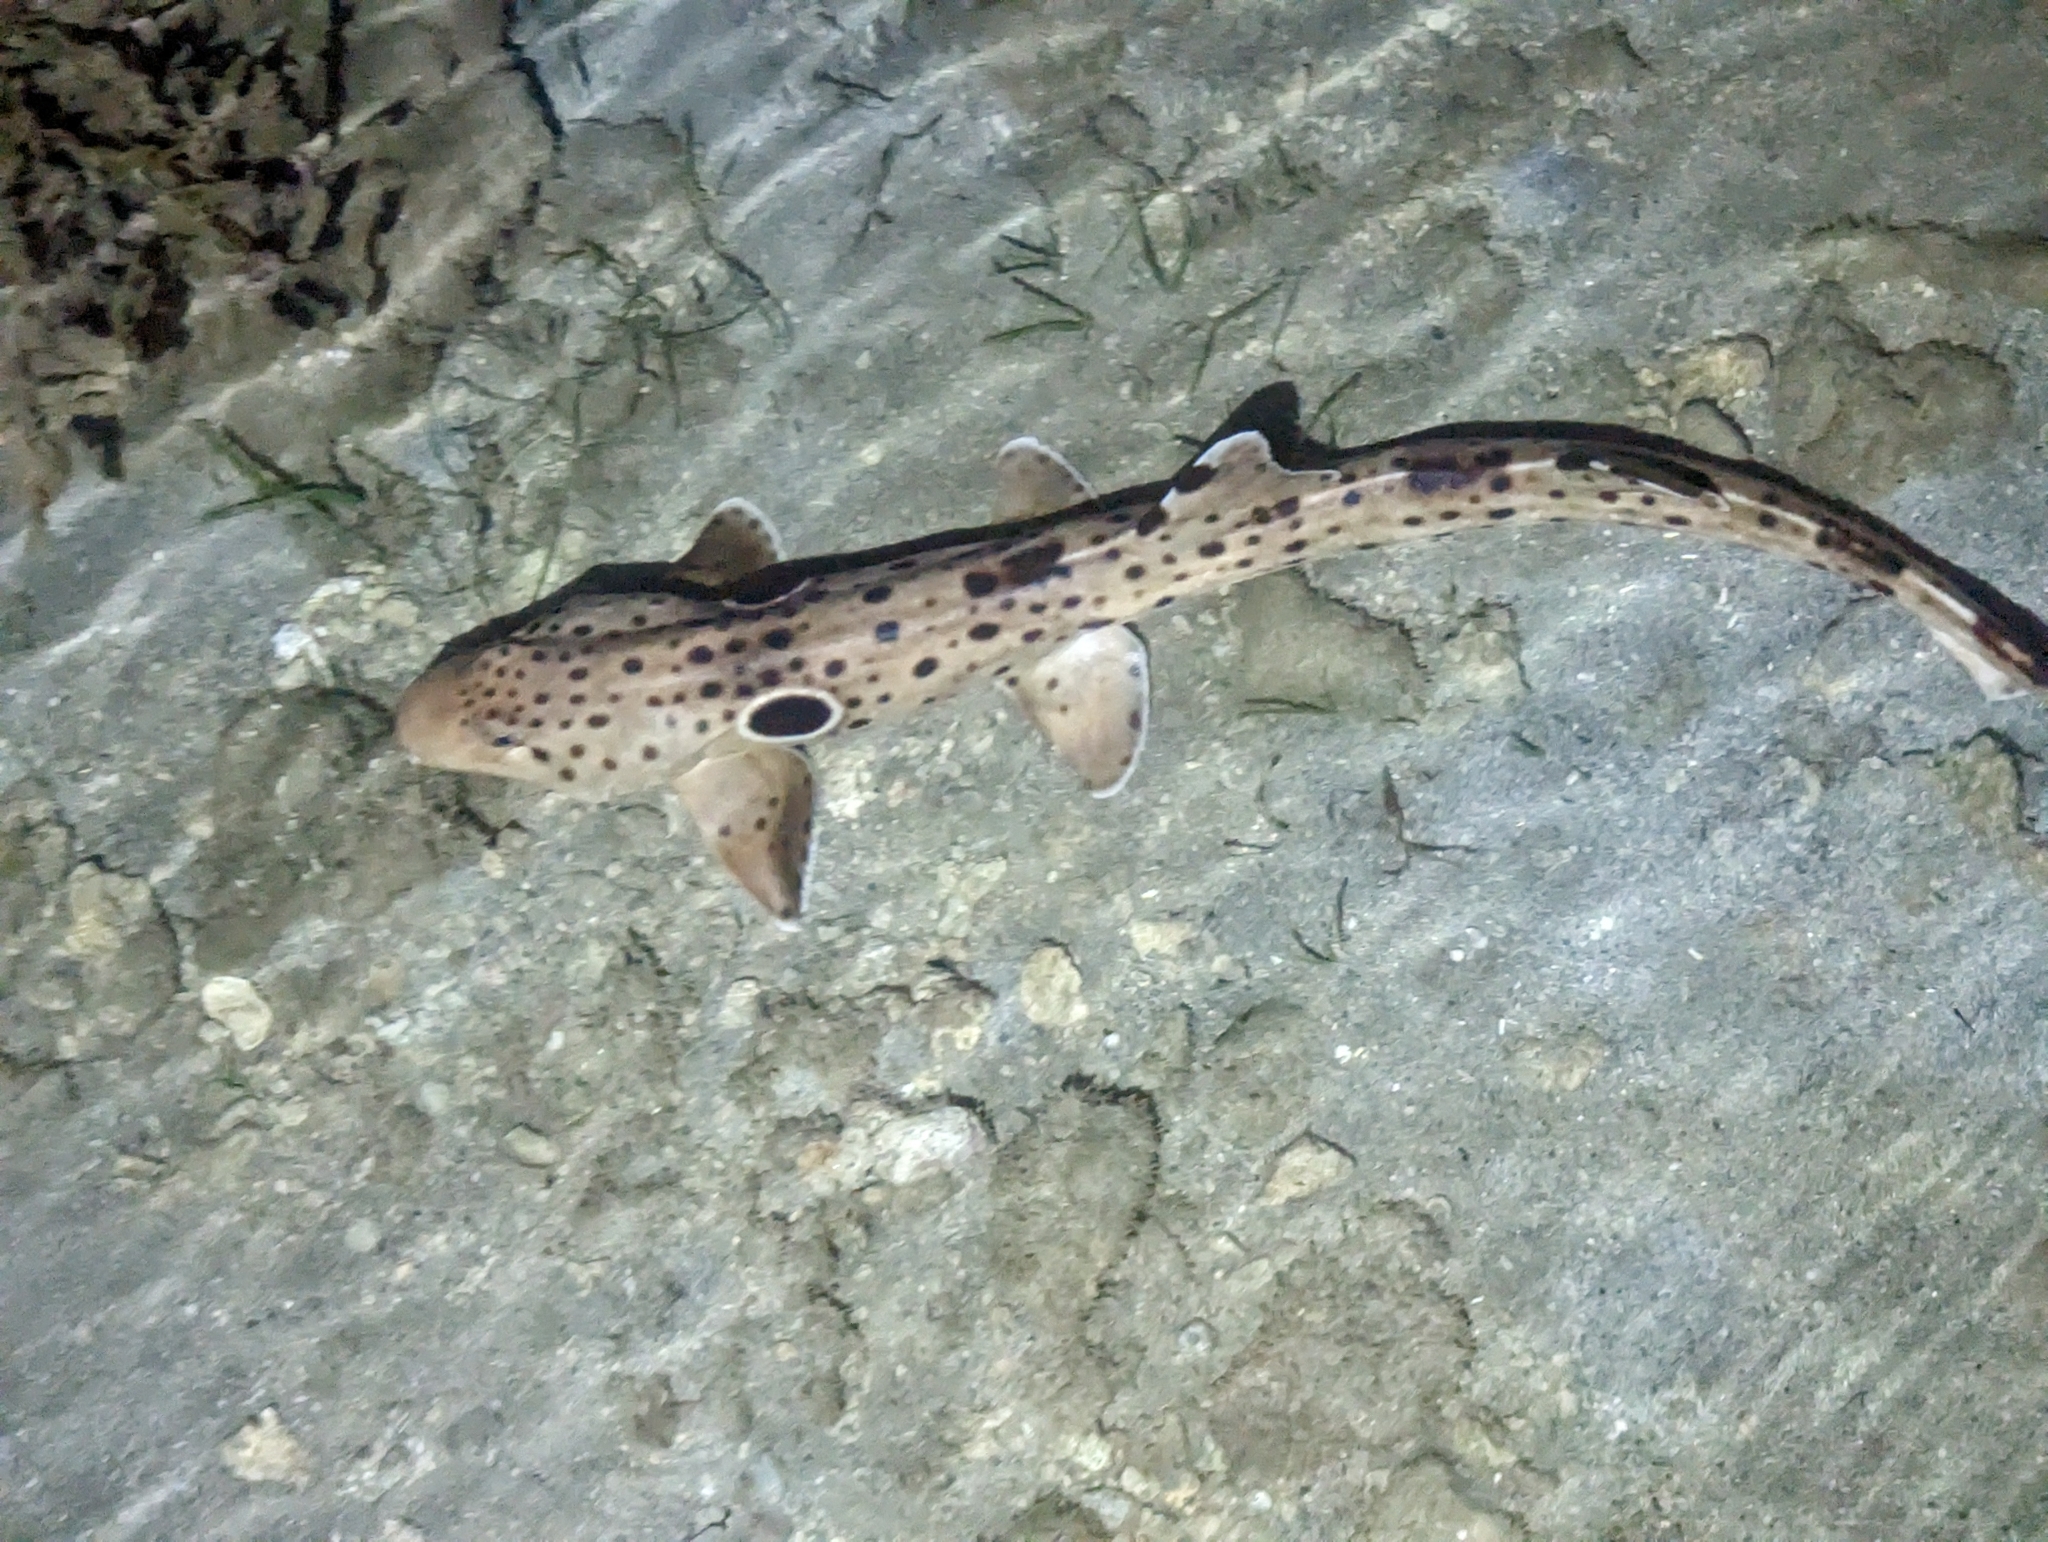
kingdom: Animalia
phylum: Chordata
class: Elasmobranchii
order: Orectolobiformes
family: Hemiscylliidae
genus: Hemiscyllium
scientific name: Hemiscyllium ocellatum
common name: Epaulette shark
